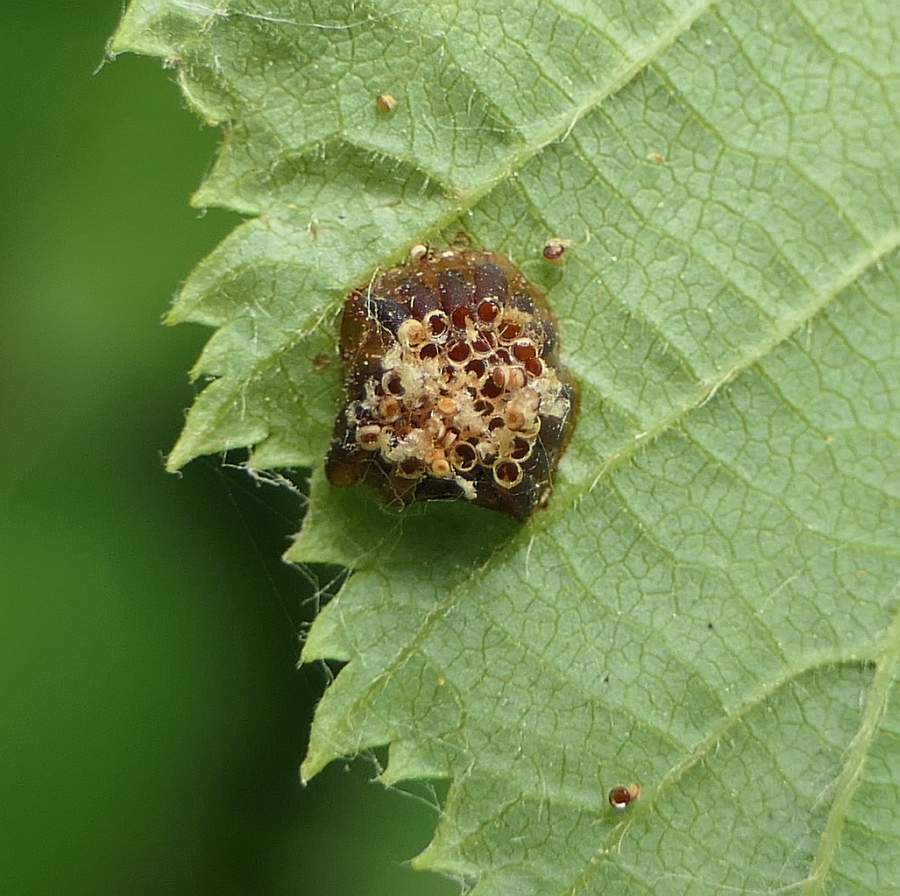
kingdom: Animalia
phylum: Arthropoda
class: Insecta
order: Hemiptera
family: Reduviidae
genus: Zelus
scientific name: Zelus luridus
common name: Pale green assassin bug
